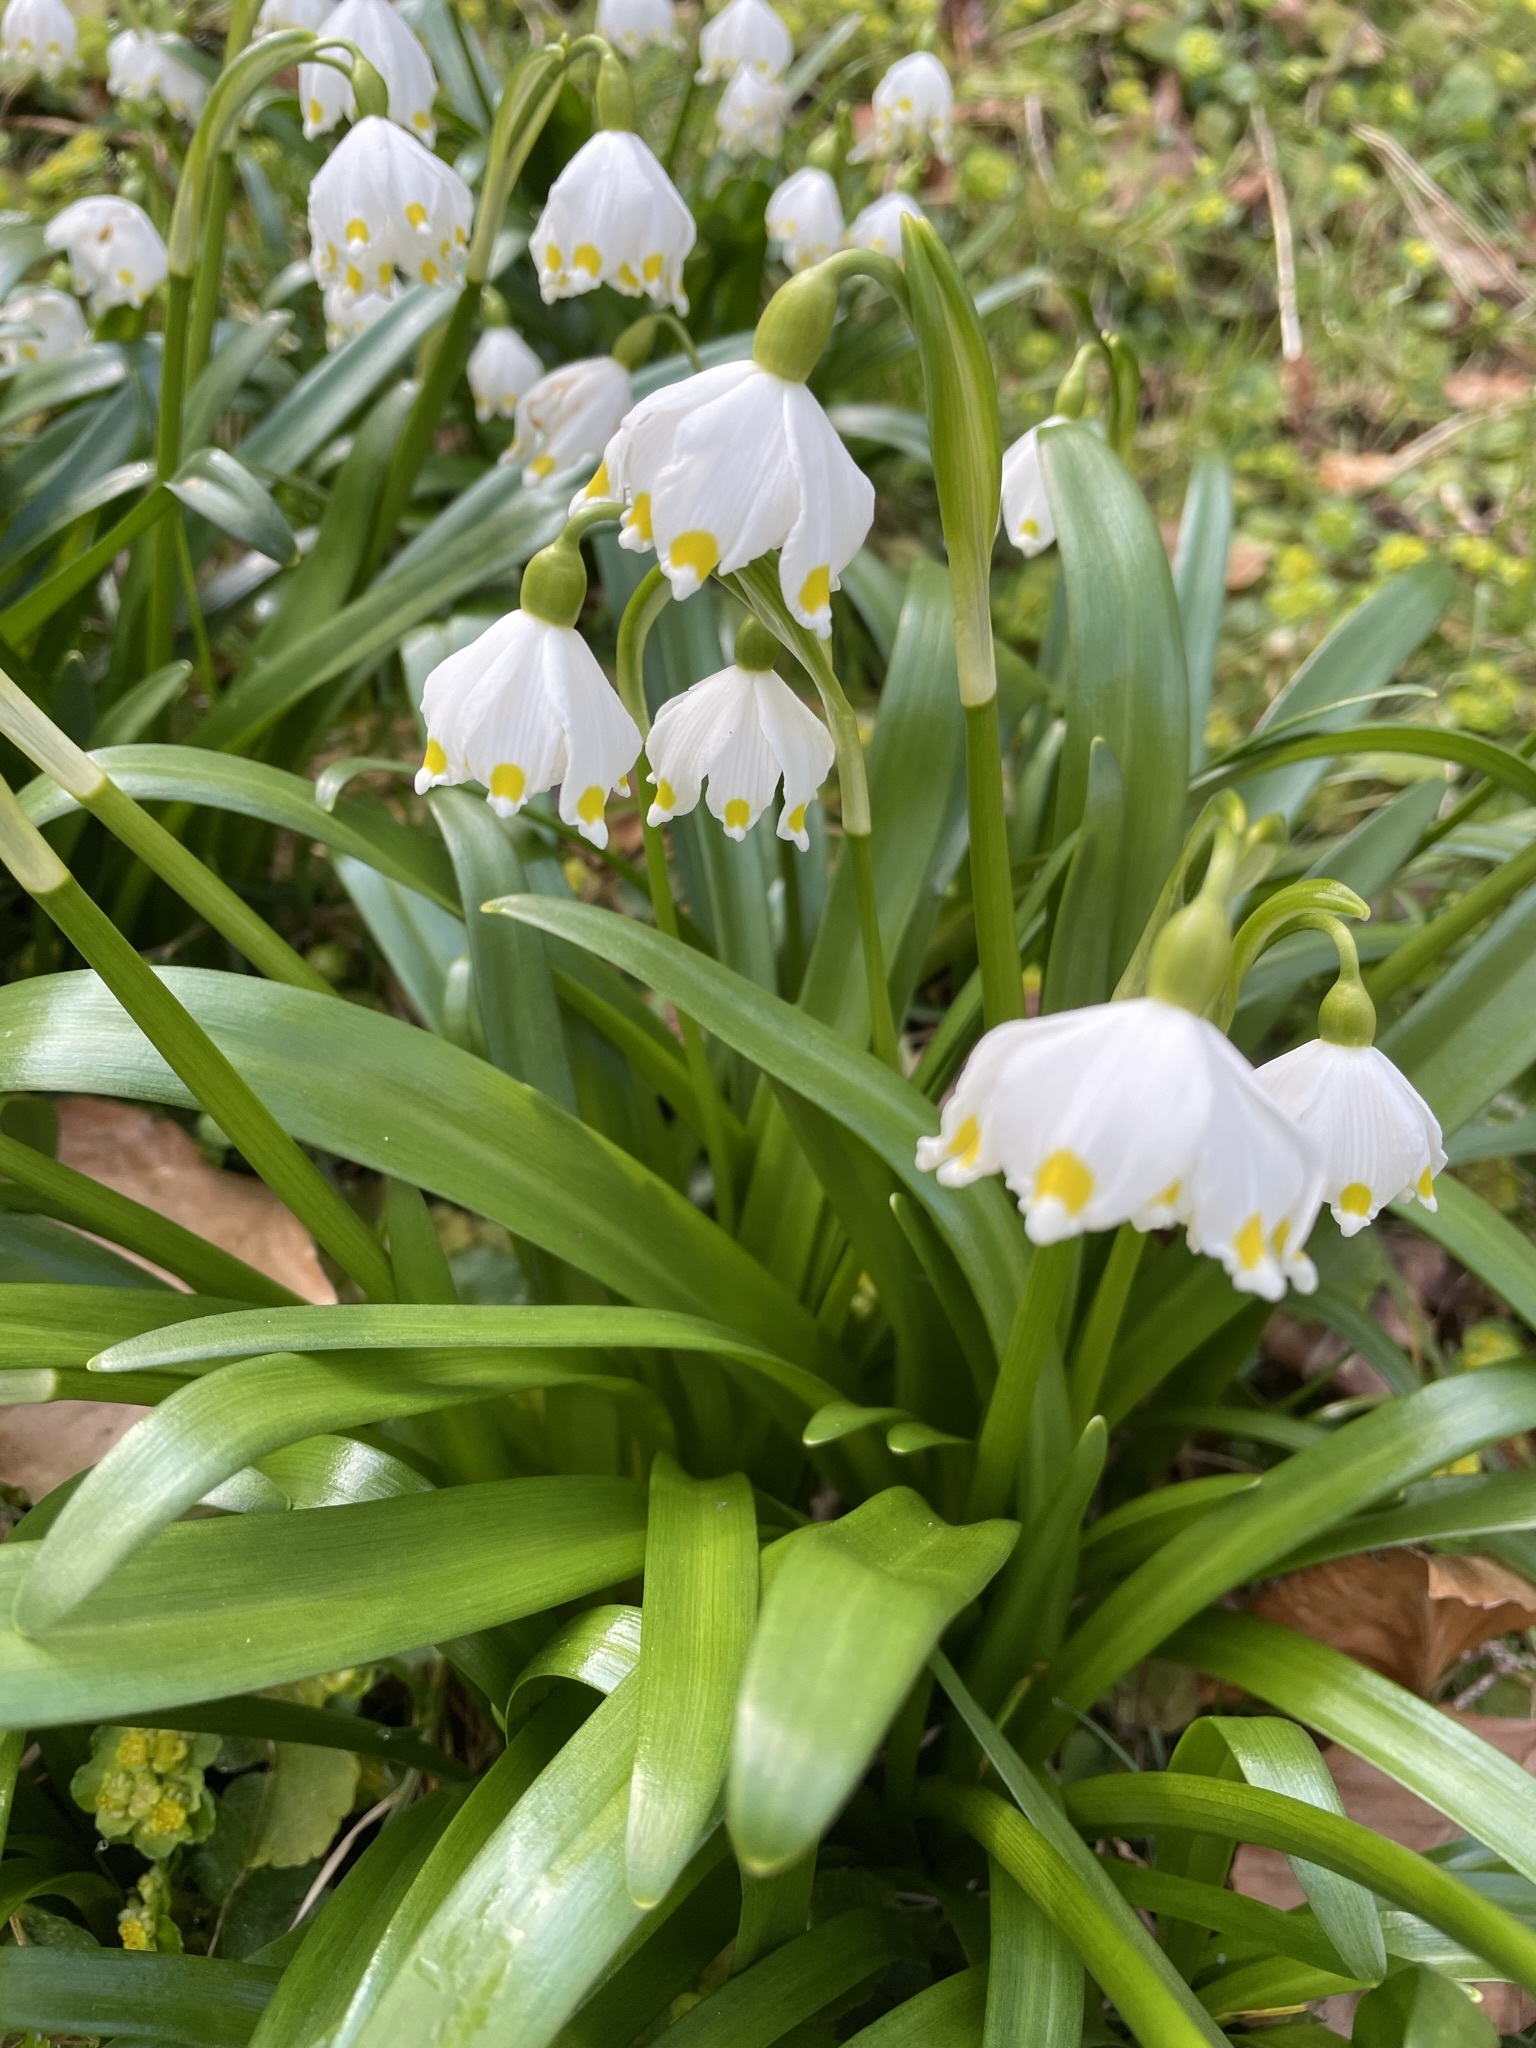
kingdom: Plantae
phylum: Tracheophyta
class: Liliopsida
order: Asparagales
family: Amaryllidaceae
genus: Leucojum
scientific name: Leucojum vernum
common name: Spring snowflake
